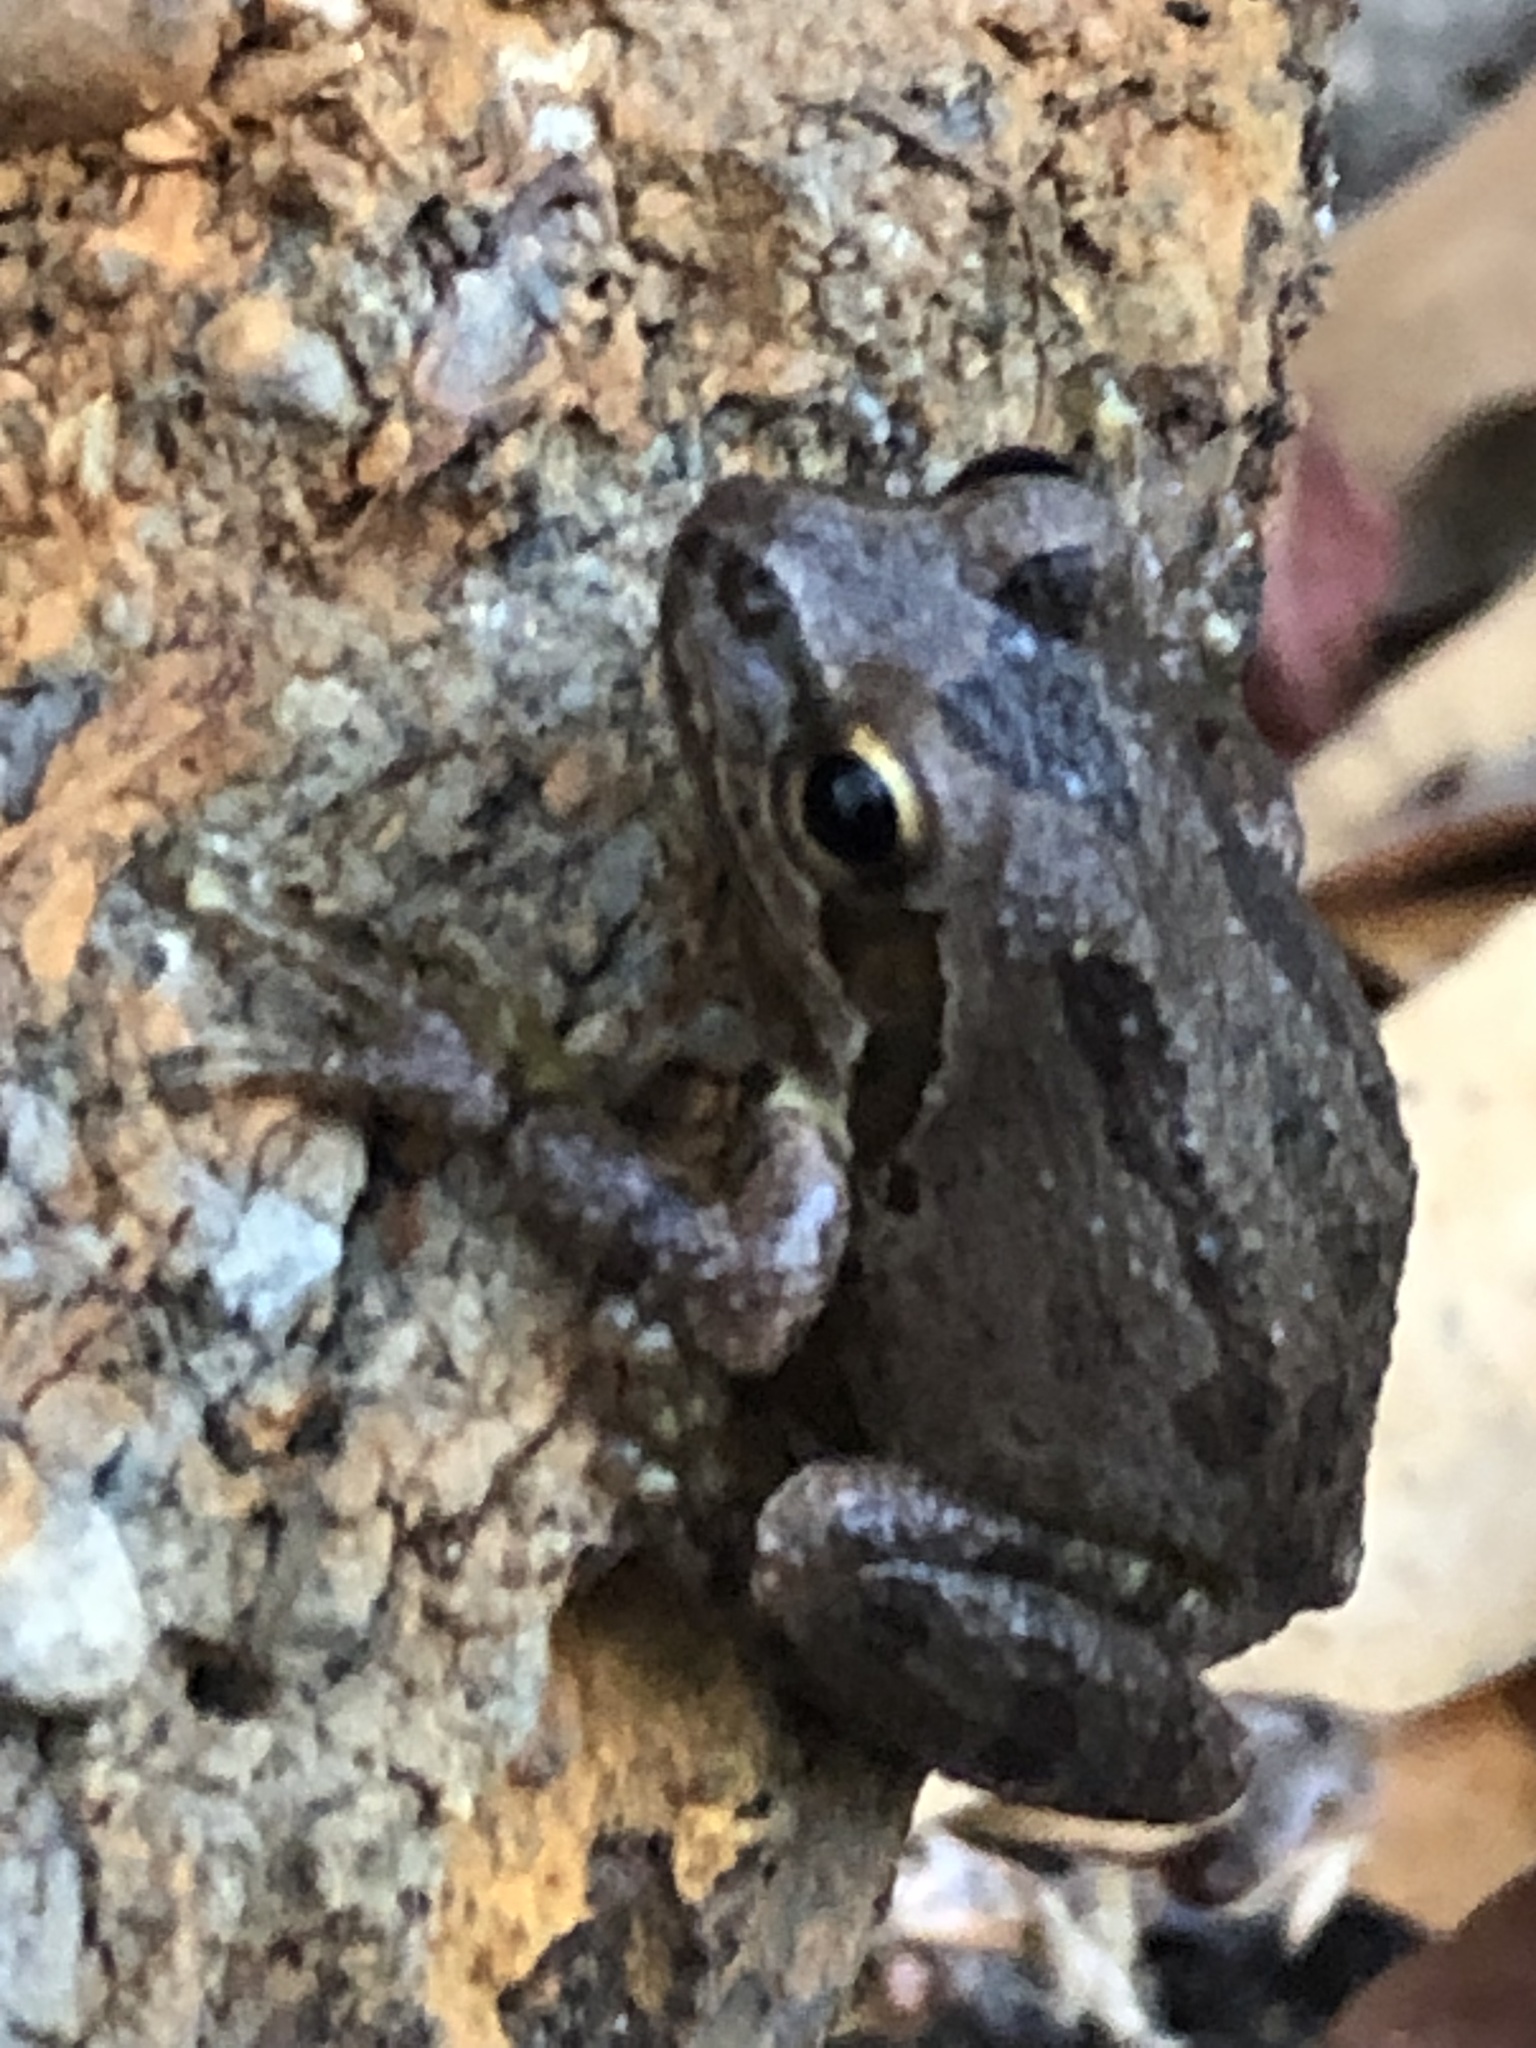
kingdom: Animalia
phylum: Chordata
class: Amphibia
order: Anura
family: Hylidae
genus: Pseudacris
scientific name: Pseudacris regilla
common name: Pacific chorus frog
